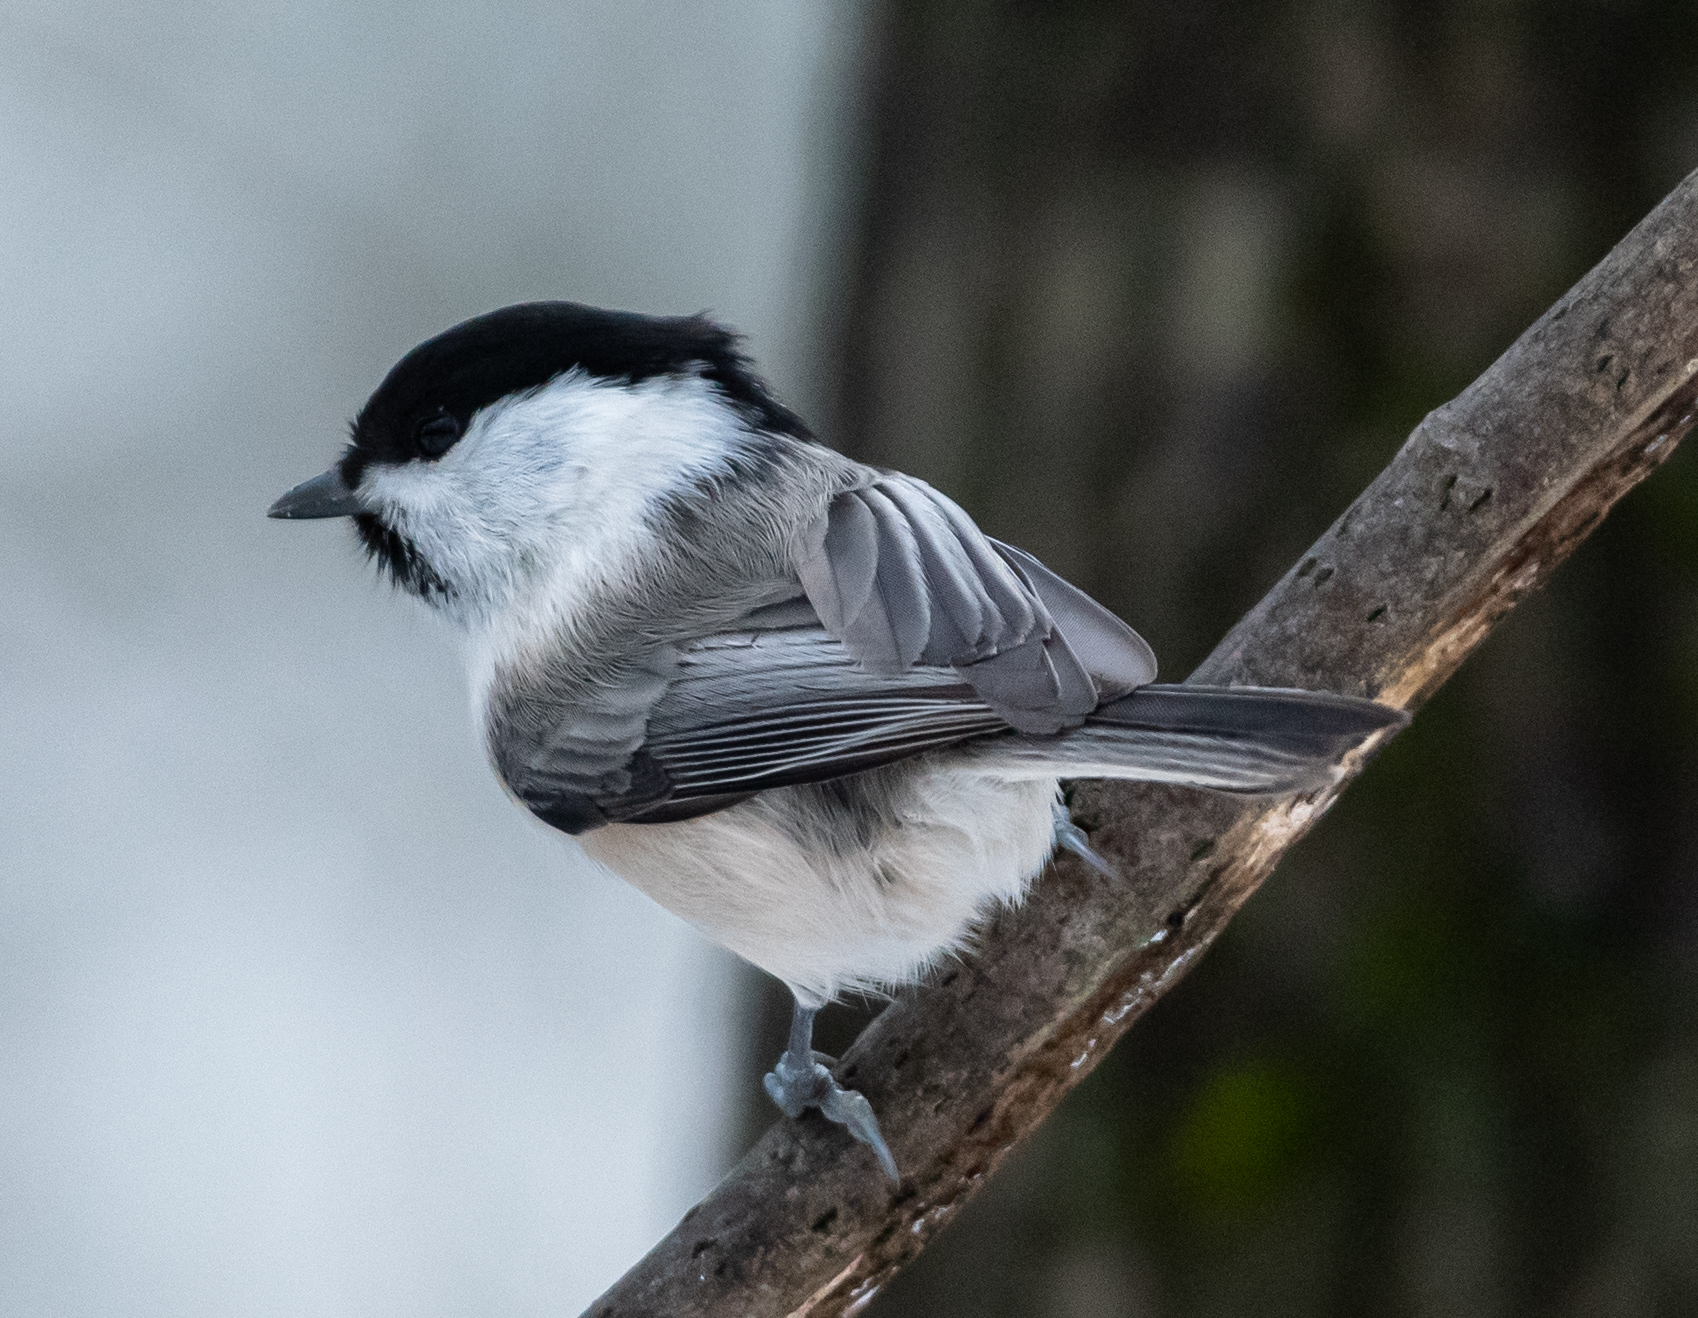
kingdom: Animalia
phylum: Chordata
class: Aves
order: Passeriformes
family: Paridae
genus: Poecile
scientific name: Poecile montanus
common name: Willow tit
